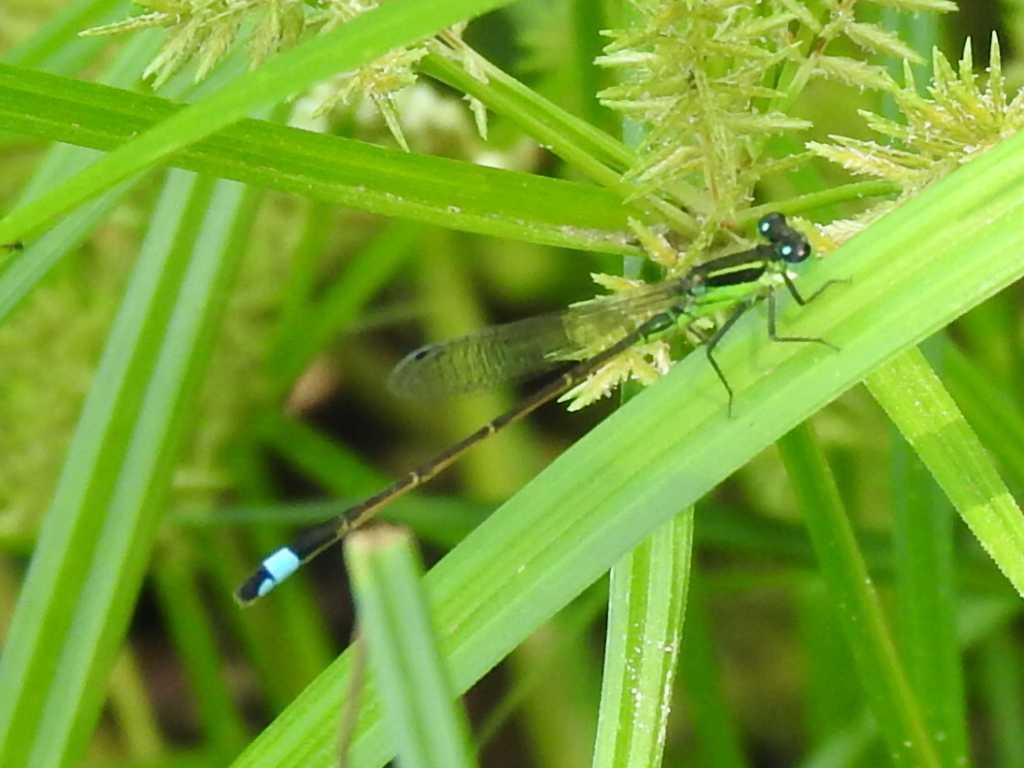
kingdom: Animalia
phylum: Arthropoda
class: Insecta
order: Odonata
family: Coenagrionidae
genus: Ischnura
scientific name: Ischnura ramburii
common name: Rambur's forktail
